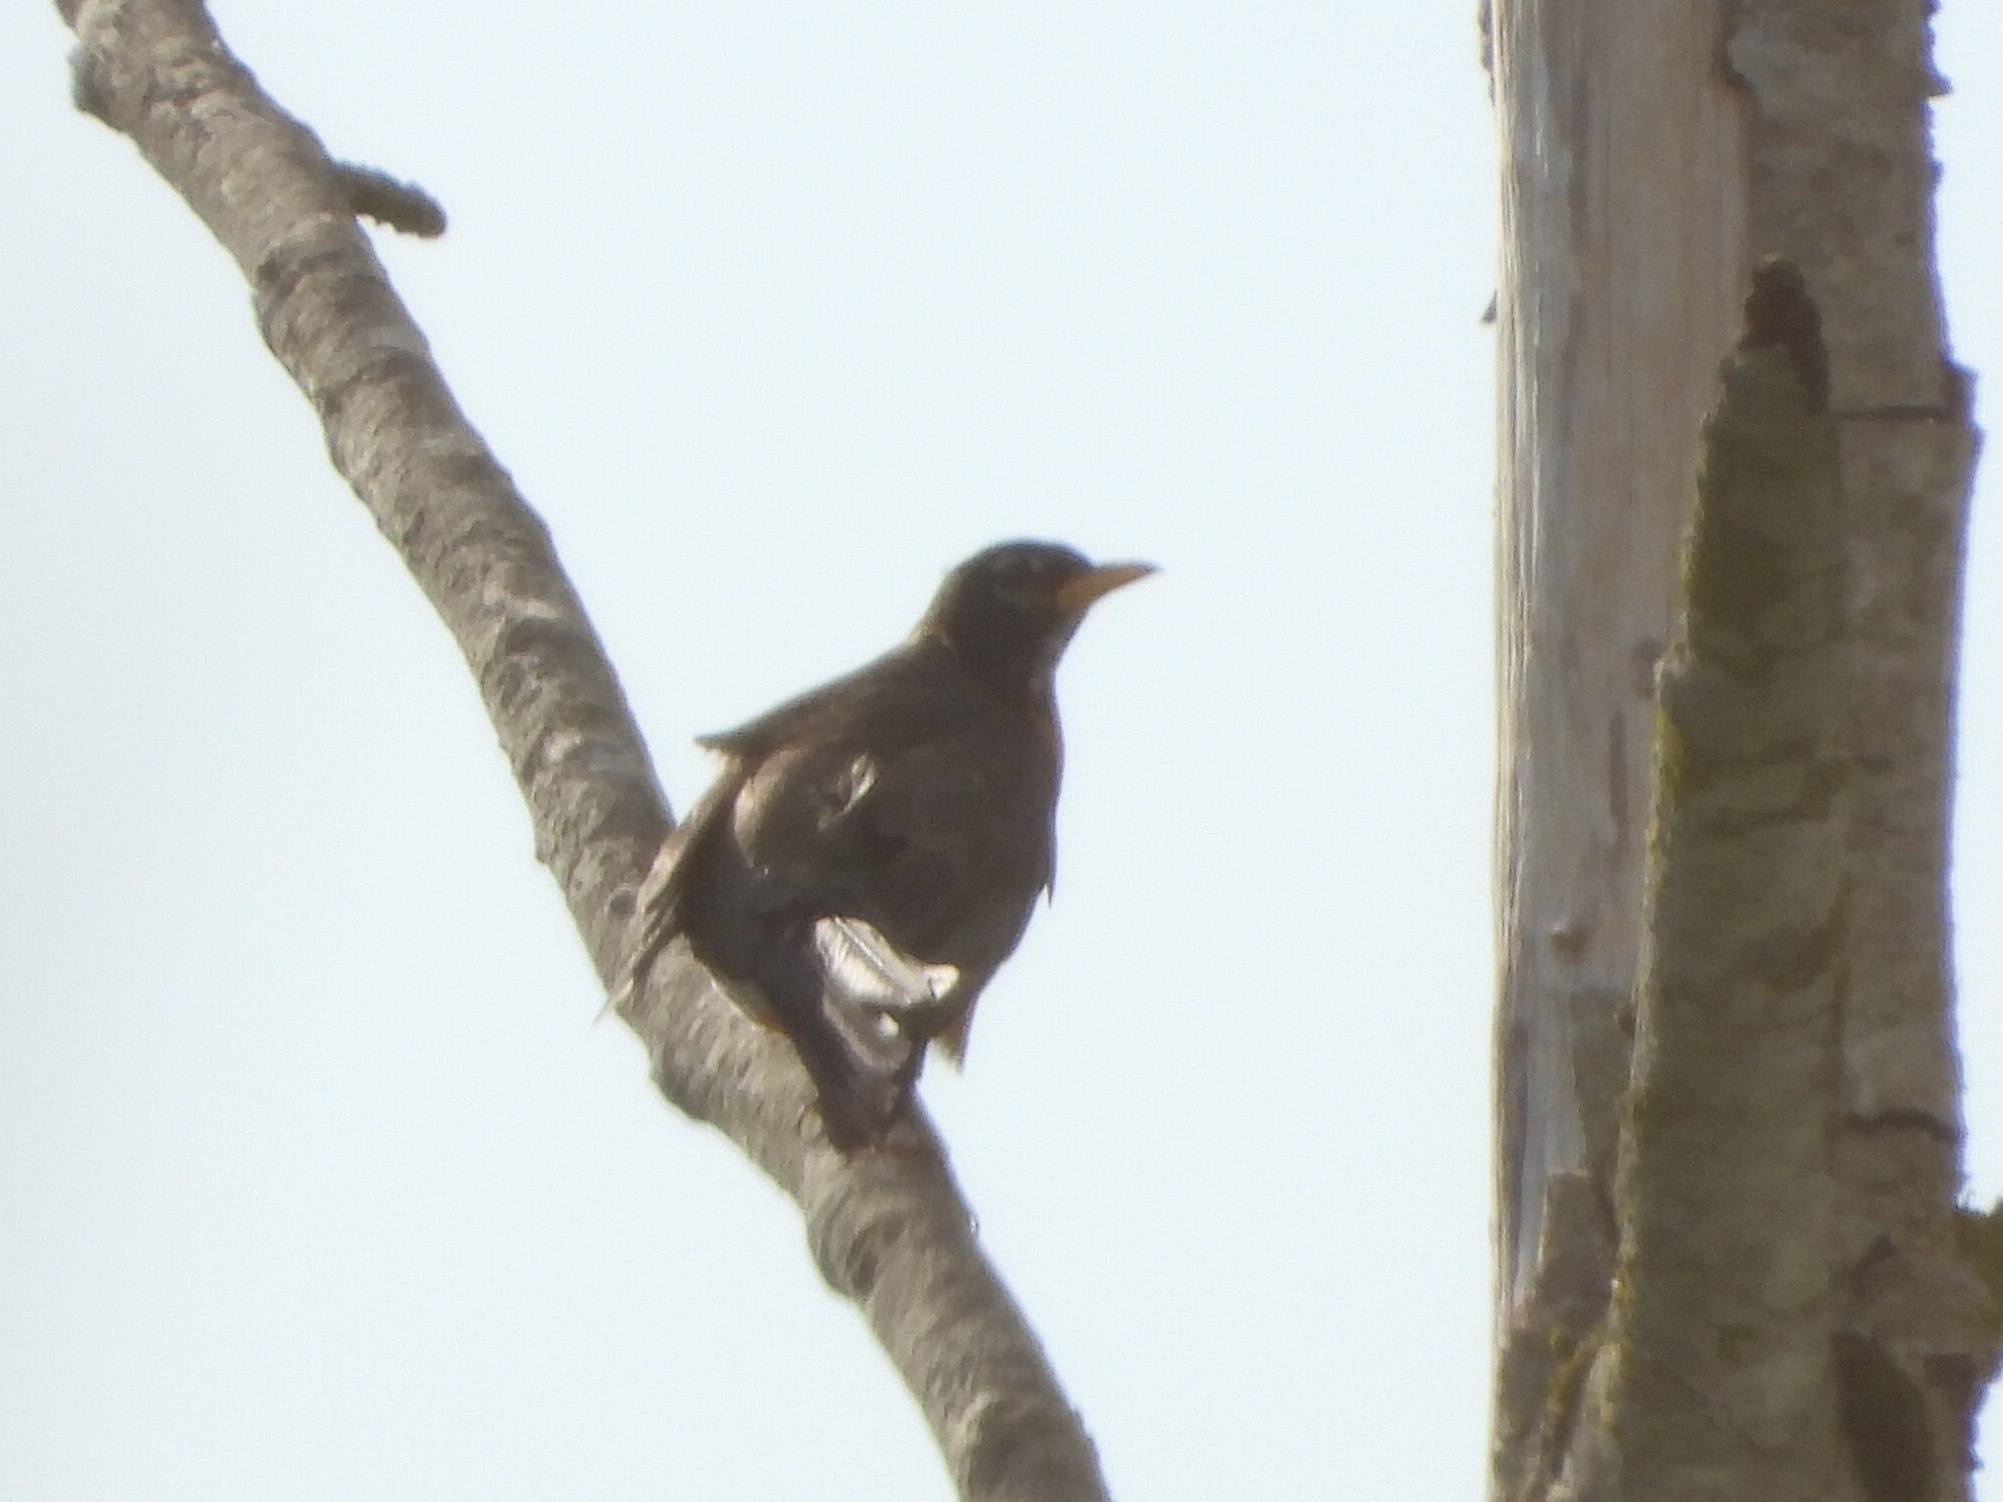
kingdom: Animalia
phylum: Chordata
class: Aves
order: Passeriformes
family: Turdidae
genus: Turdus
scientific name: Turdus migratorius
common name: American robin
